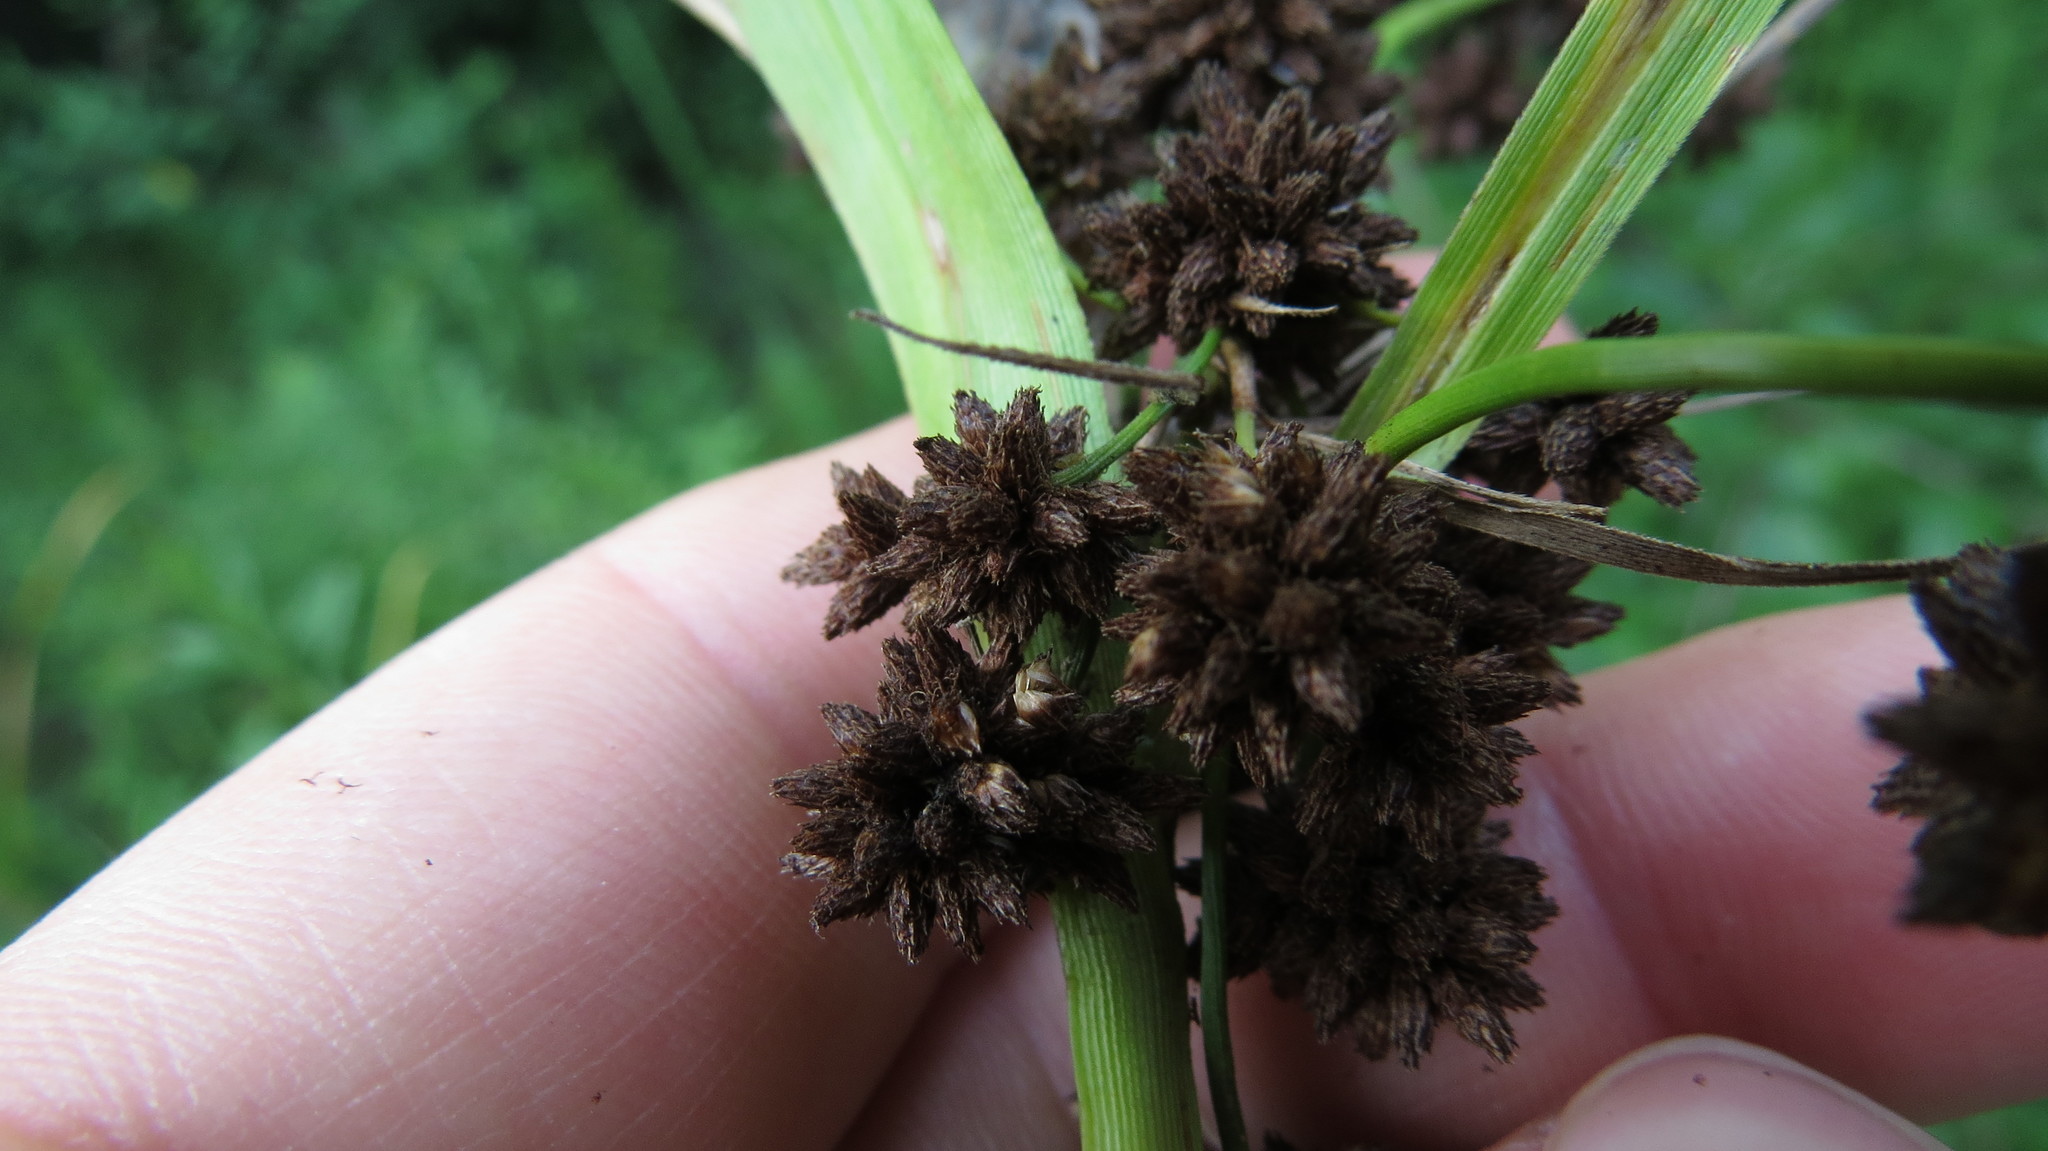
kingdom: Plantae
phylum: Tracheophyta
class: Liliopsida
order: Poales
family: Cyperaceae
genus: Scirpus
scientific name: Scirpus atrovirens
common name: Black bulrush
